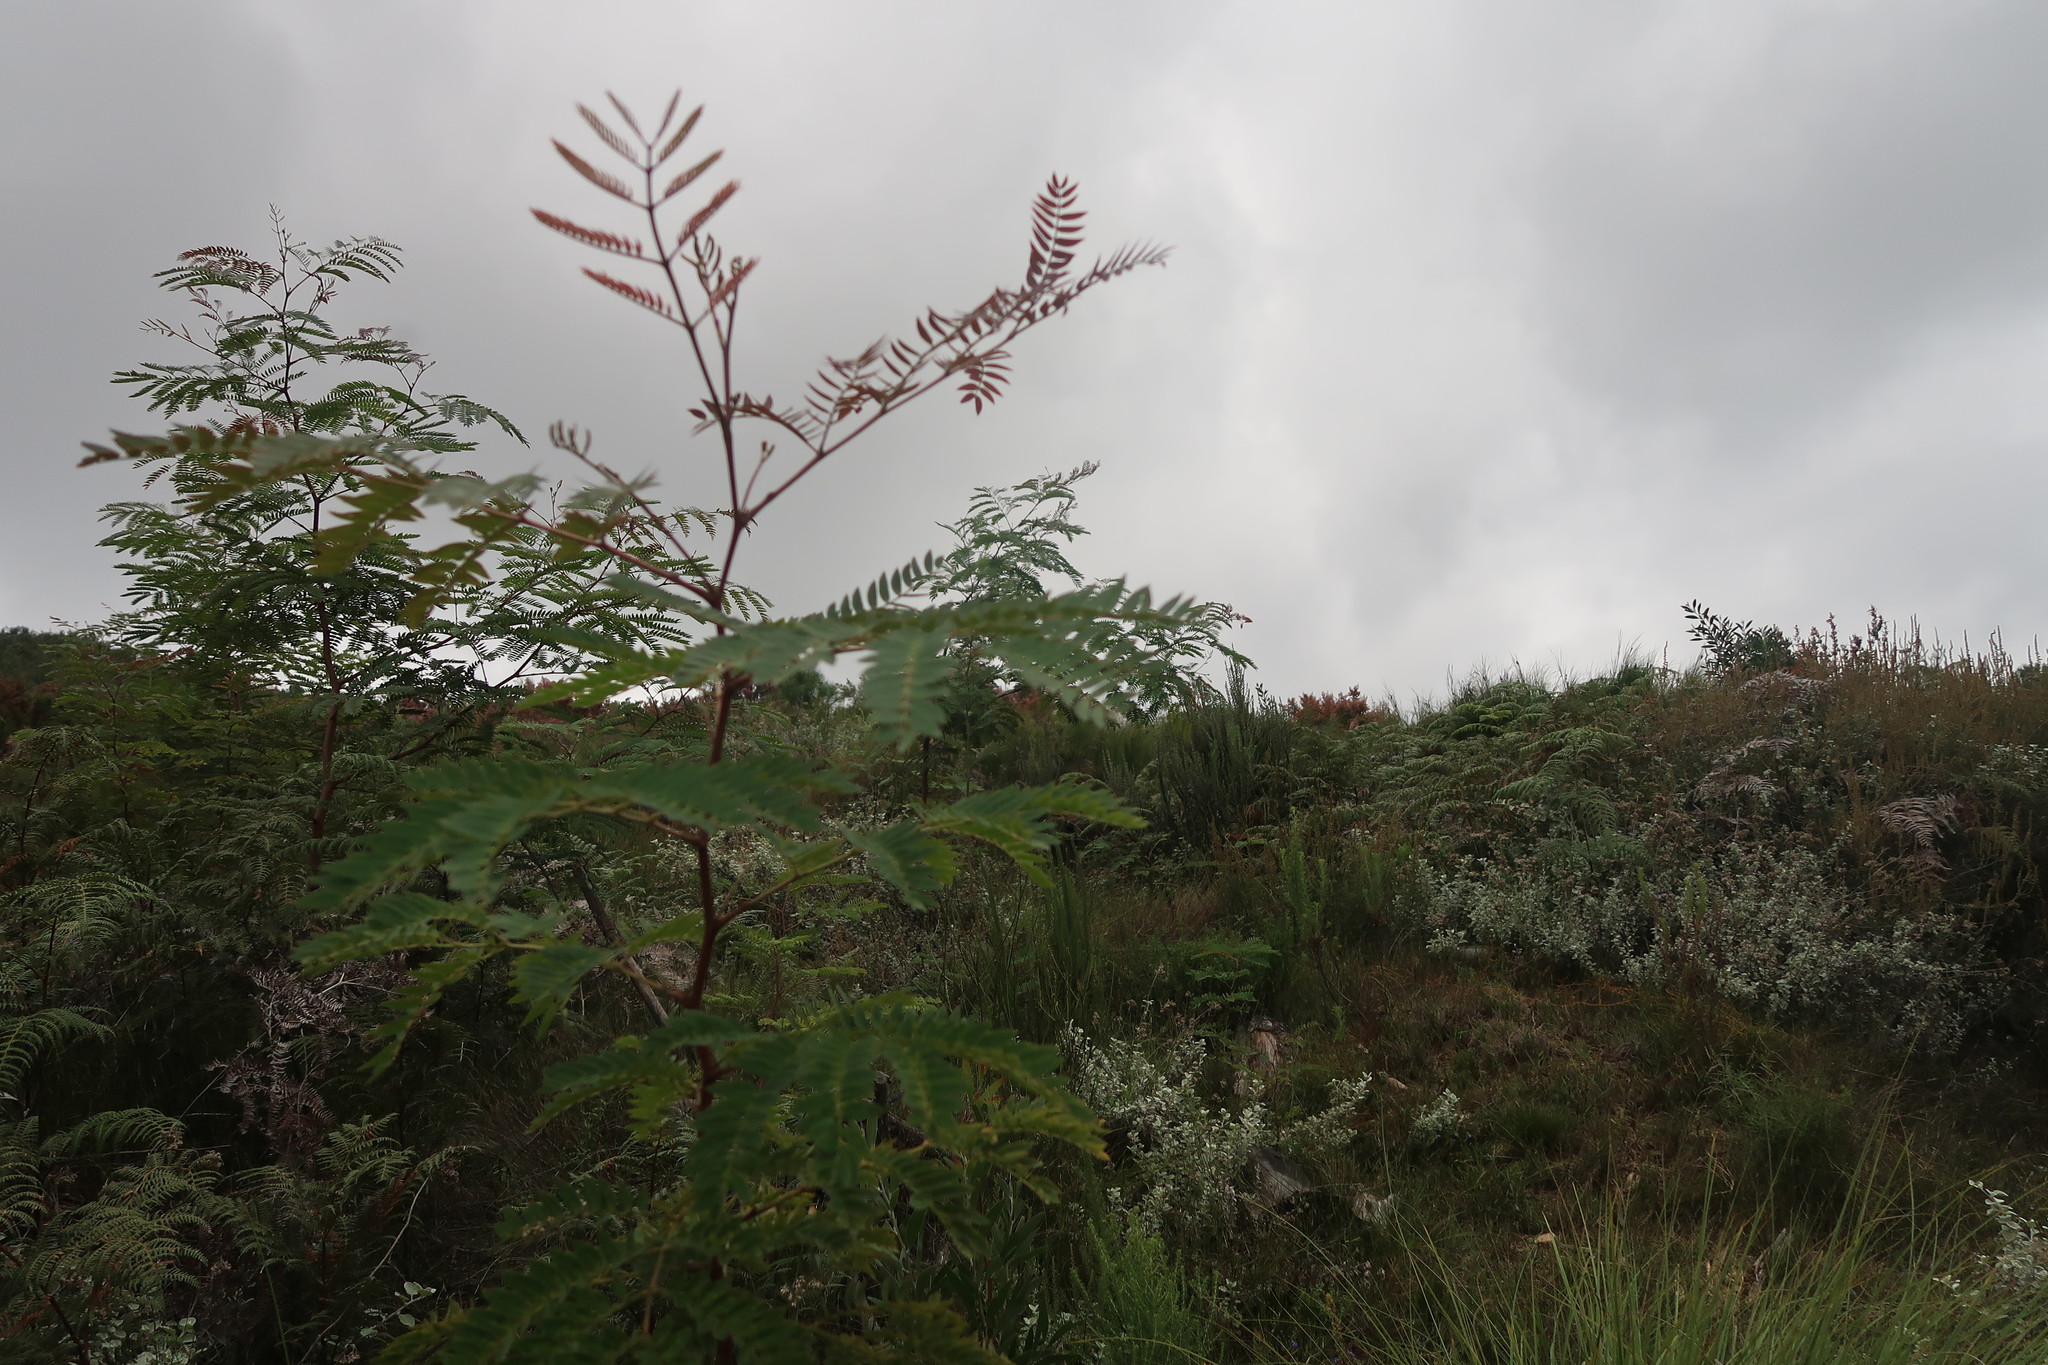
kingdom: Plantae
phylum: Tracheophyta
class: Magnoliopsida
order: Fabales
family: Fabaceae
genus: Acacia
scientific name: Acacia elata
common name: Cedar wattle
